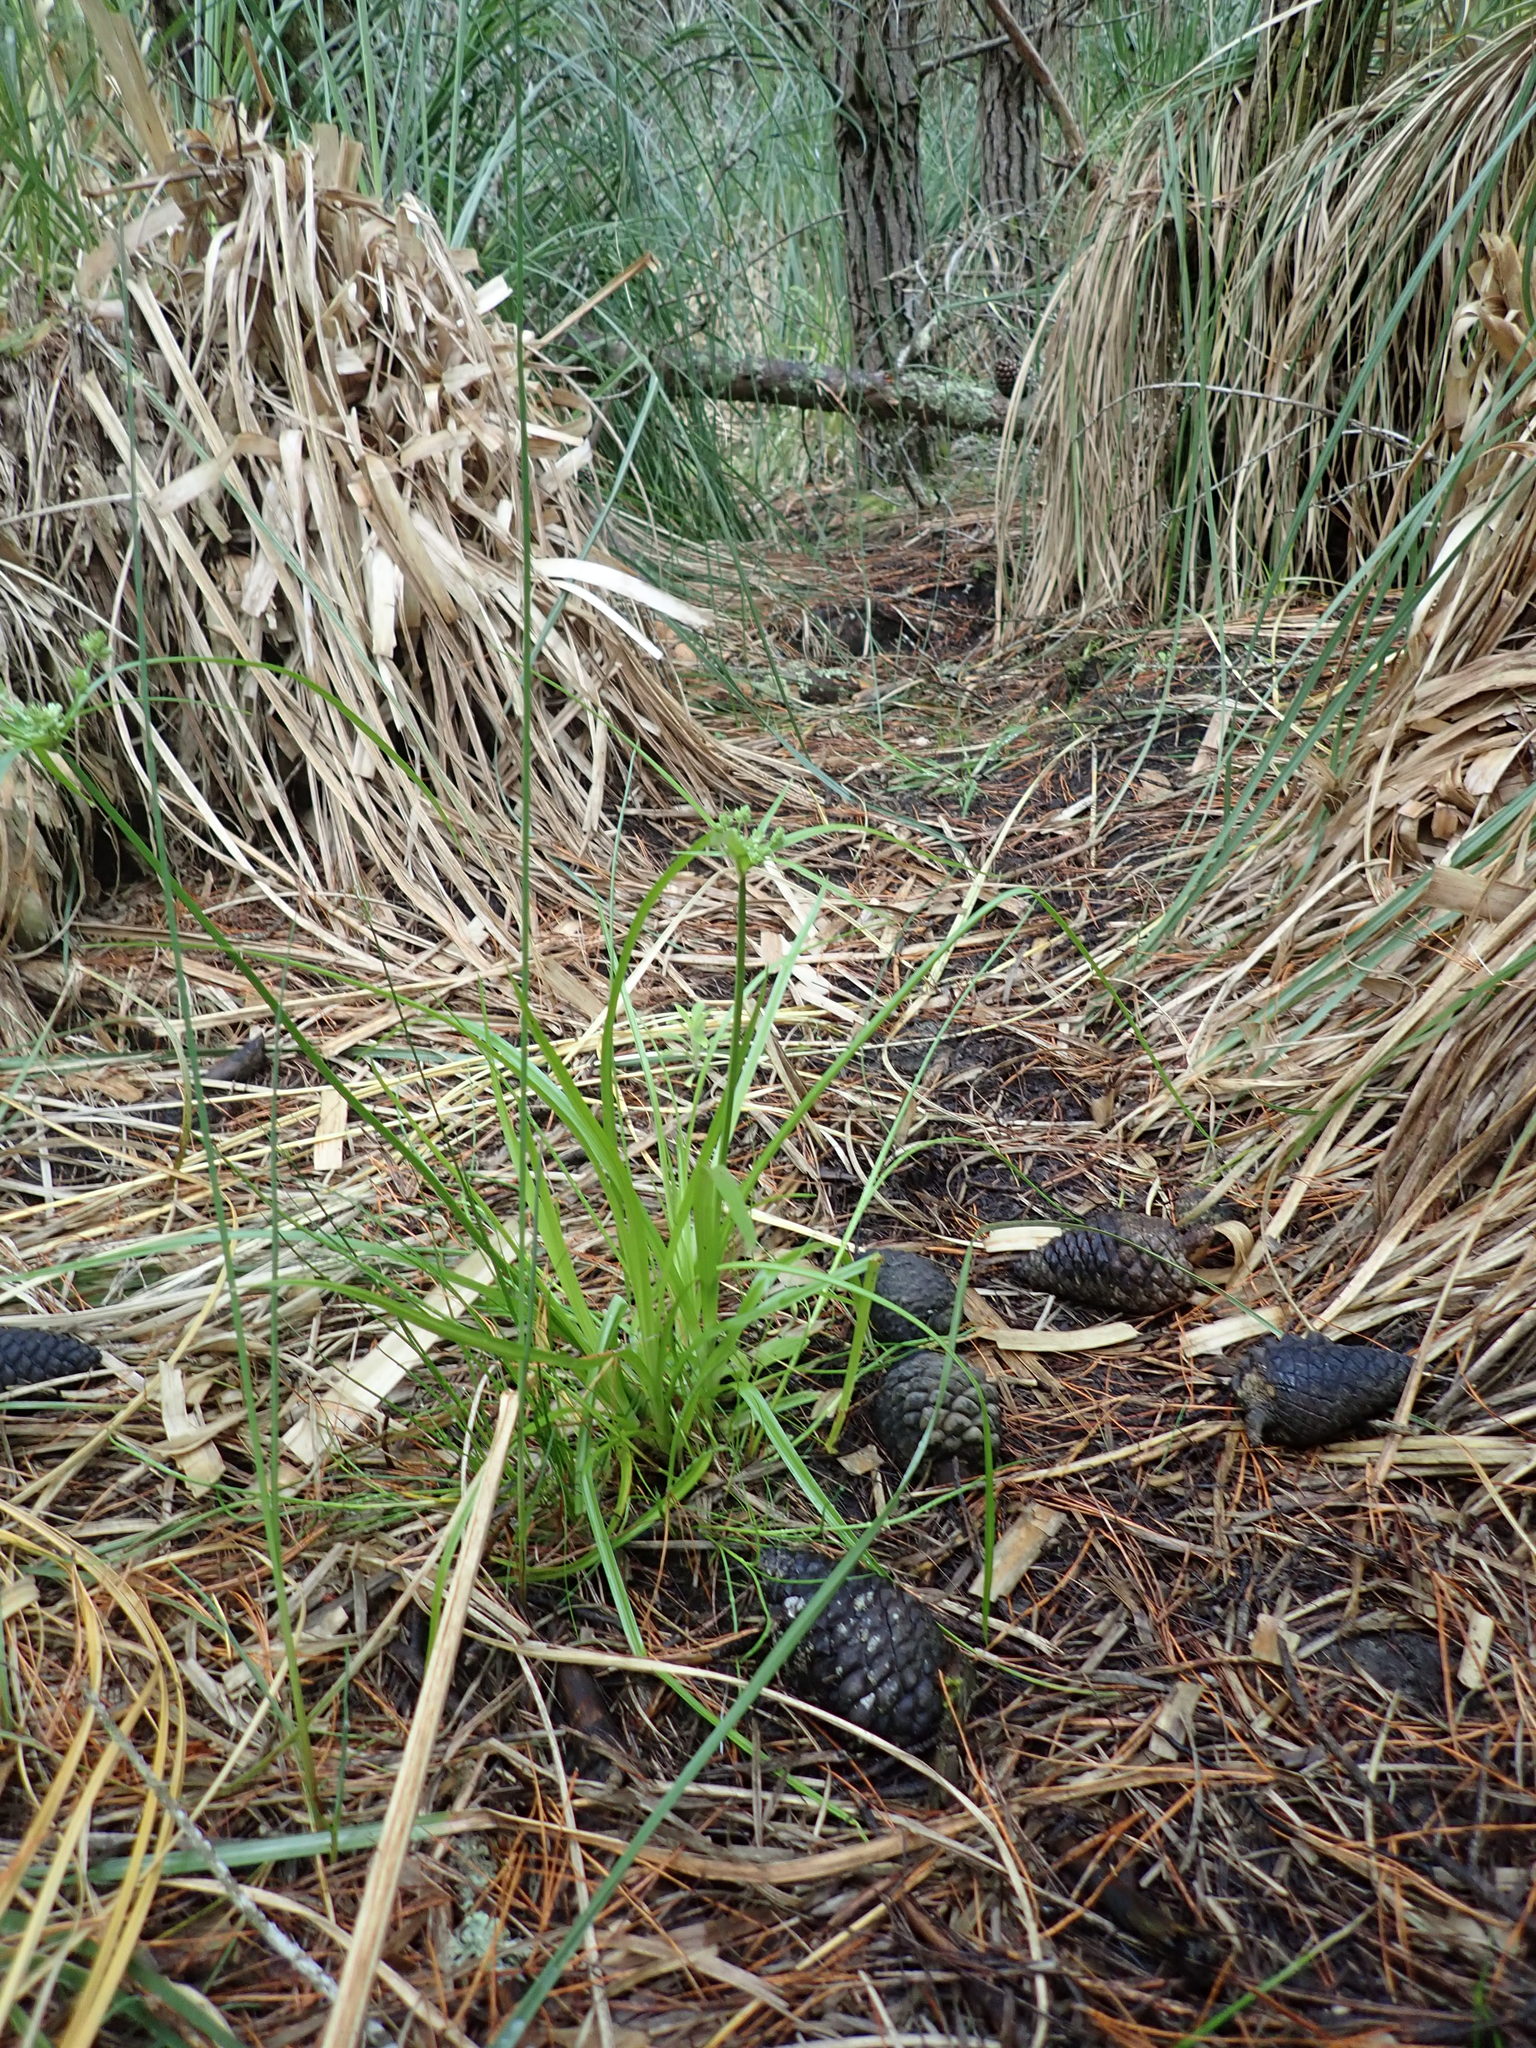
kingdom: Plantae
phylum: Tracheophyta
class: Liliopsida
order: Poales
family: Cyperaceae
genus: Cyperus
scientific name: Cyperus eragrostis
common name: Tall flatsedge
